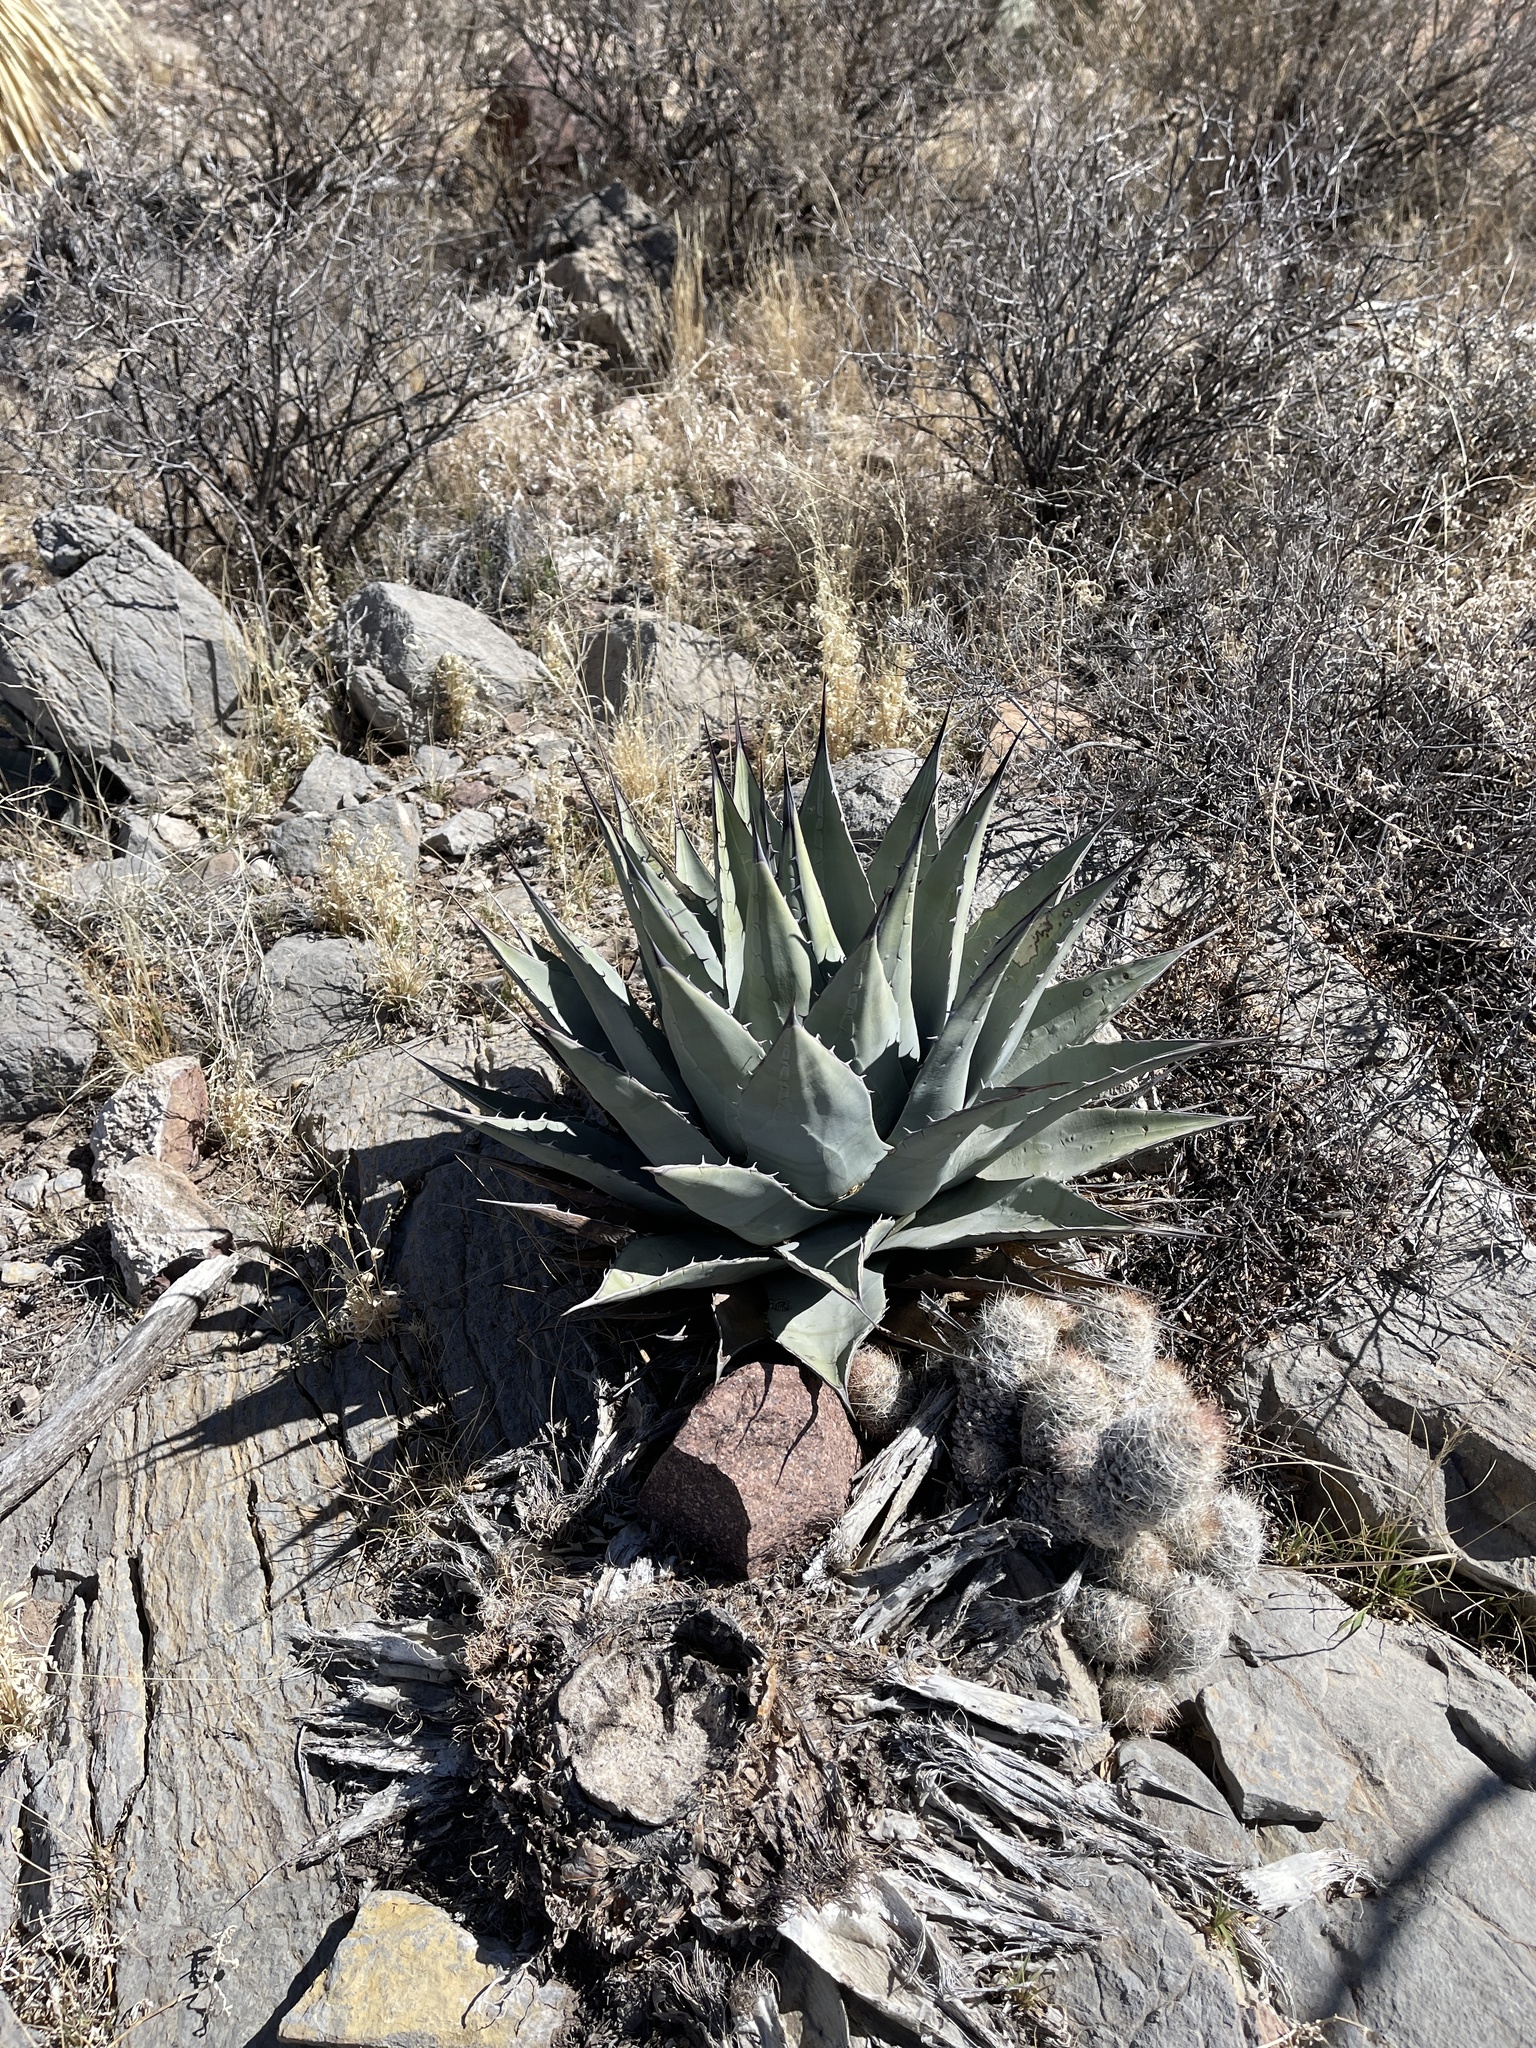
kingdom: Plantae
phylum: Tracheophyta
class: Liliopsida
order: Asparagales
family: Asparagaceae
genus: Agave
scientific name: Agave parryi
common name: Parry's agave
